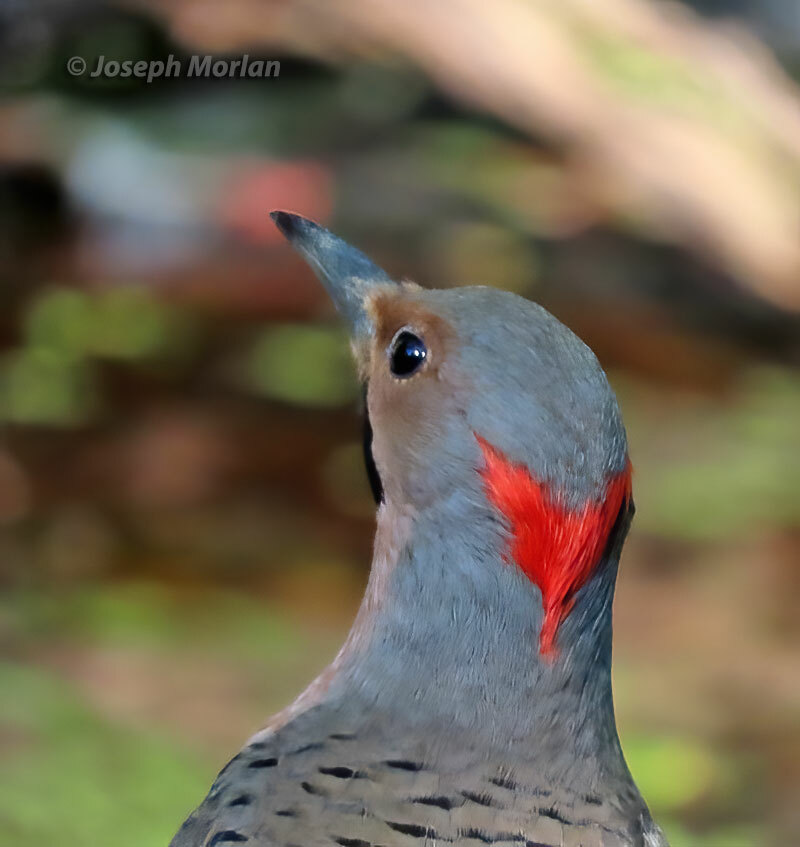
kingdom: Animalia
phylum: Chordata
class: Aves
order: Piciformes
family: Picidae
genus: Colaptes
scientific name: Colaptes auratus
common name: Northern flicker
